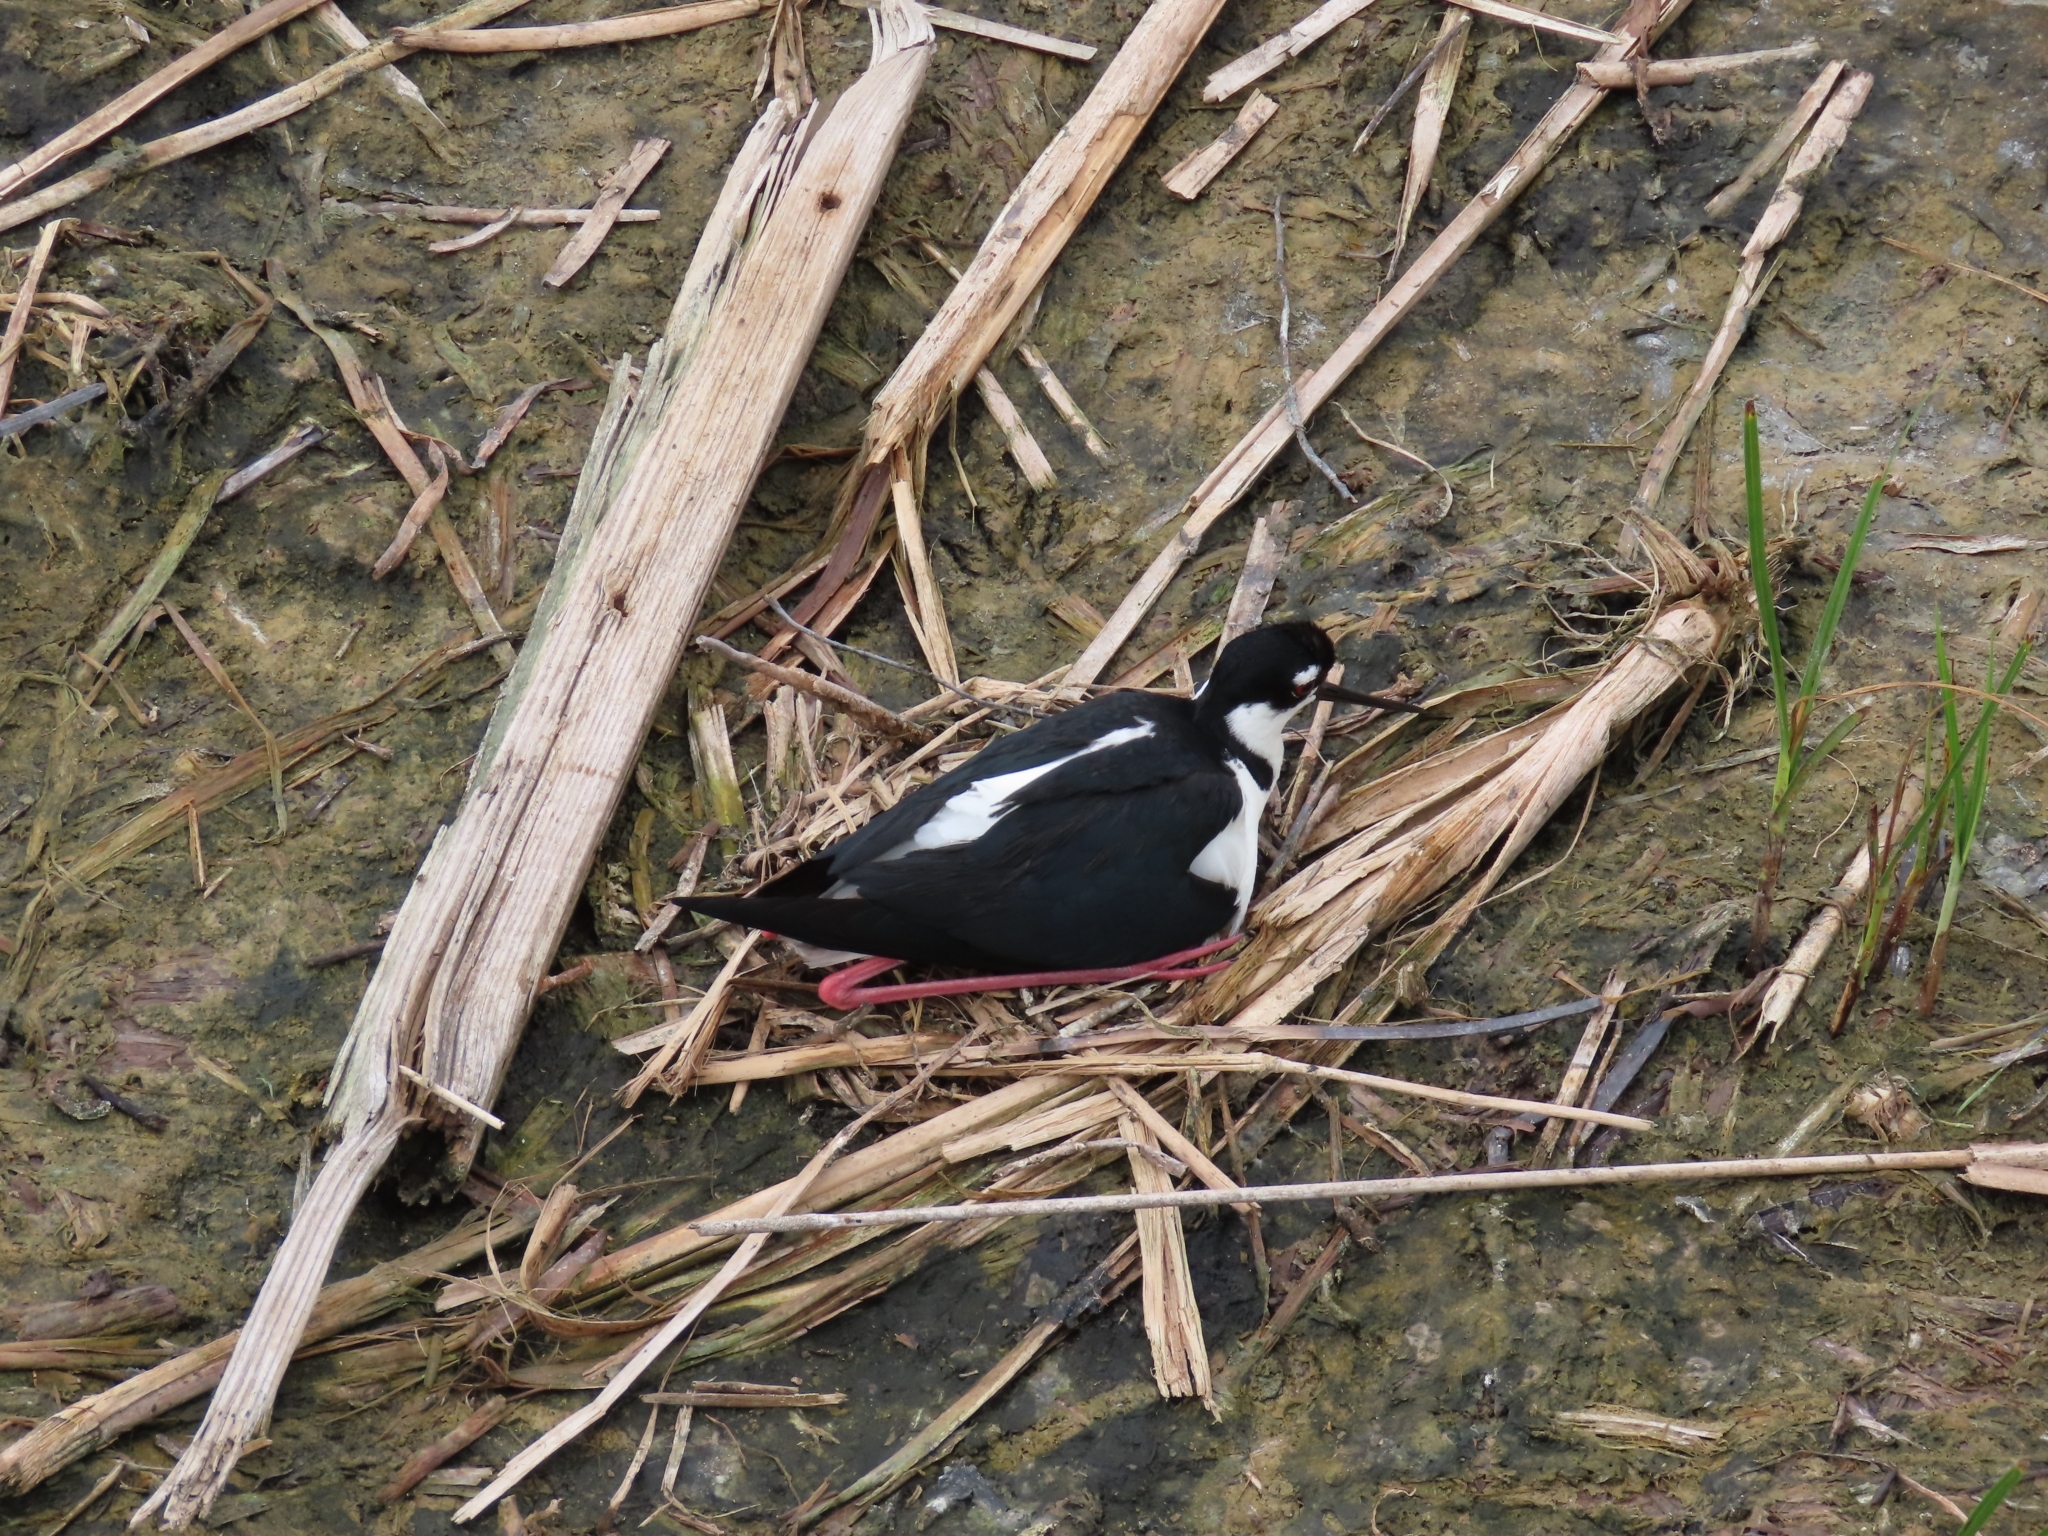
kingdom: Animalia
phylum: Chordata
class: Aves
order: Charadriiformes
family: Recurvirostridae
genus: Himantopus
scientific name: Himantopus mexicanus
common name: Black-necked stilt
